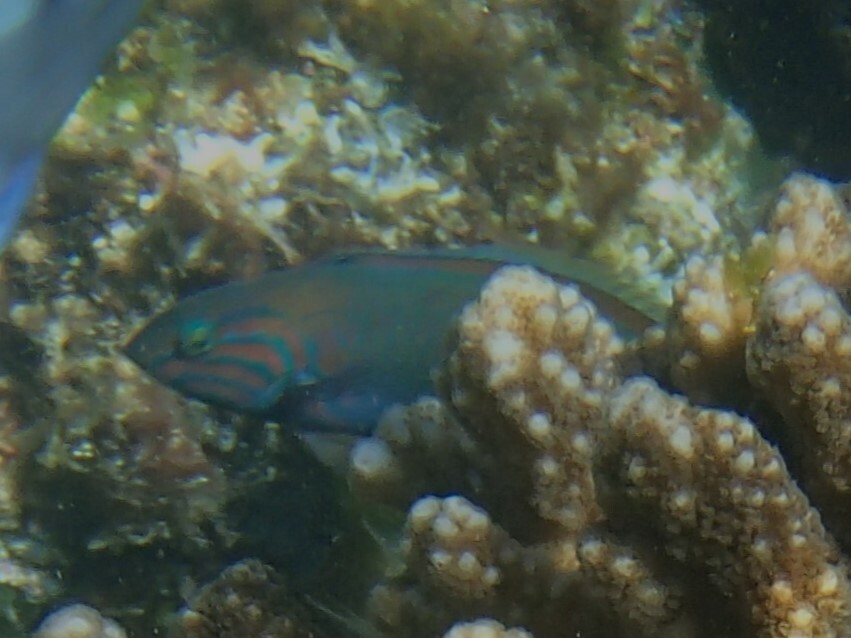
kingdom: Animalia
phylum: Chordata
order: Perciformes
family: Labridae
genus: Thalassoma
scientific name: Thalassoma grammaticum
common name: Sunset wrasse
